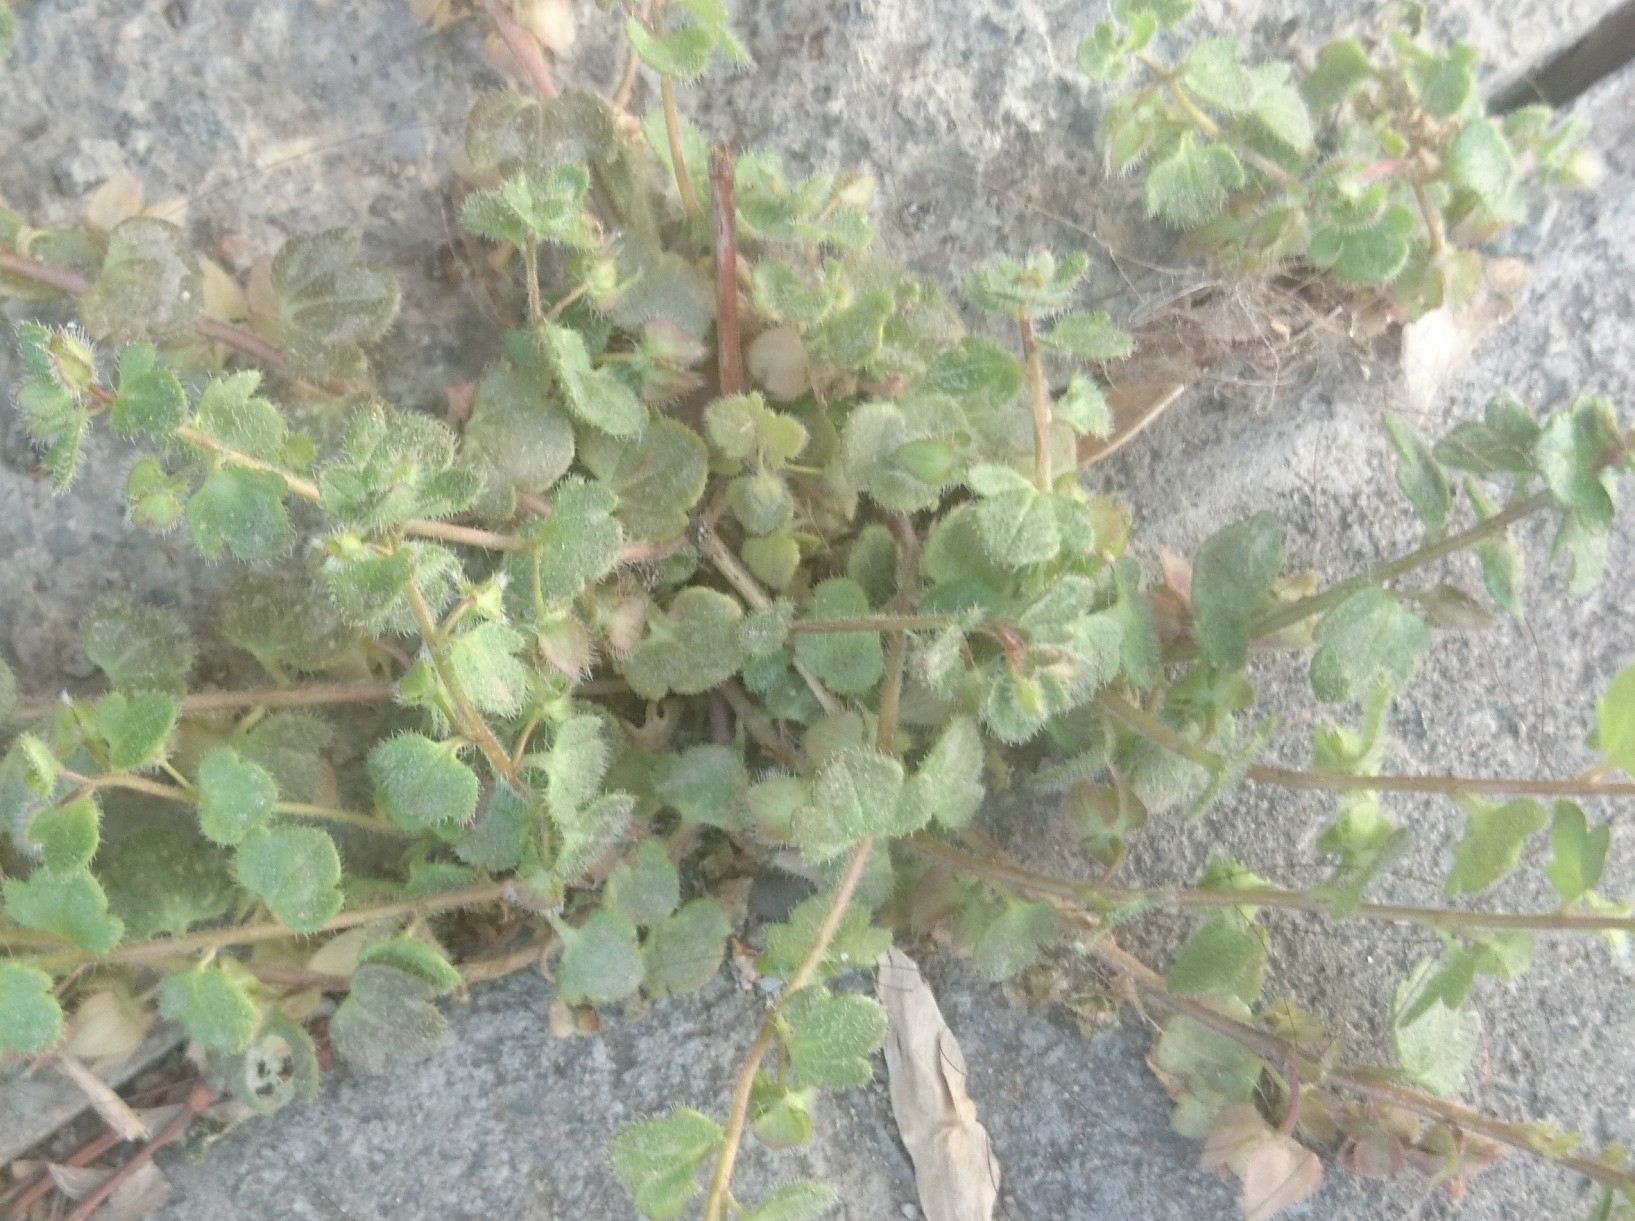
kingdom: Plantae
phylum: Tracheophyta
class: Magnoliopsida
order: Lamiales
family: Plantaginaceae
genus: Veronica
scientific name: Veronica hederifolia
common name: Ivy-leaved speedwell
